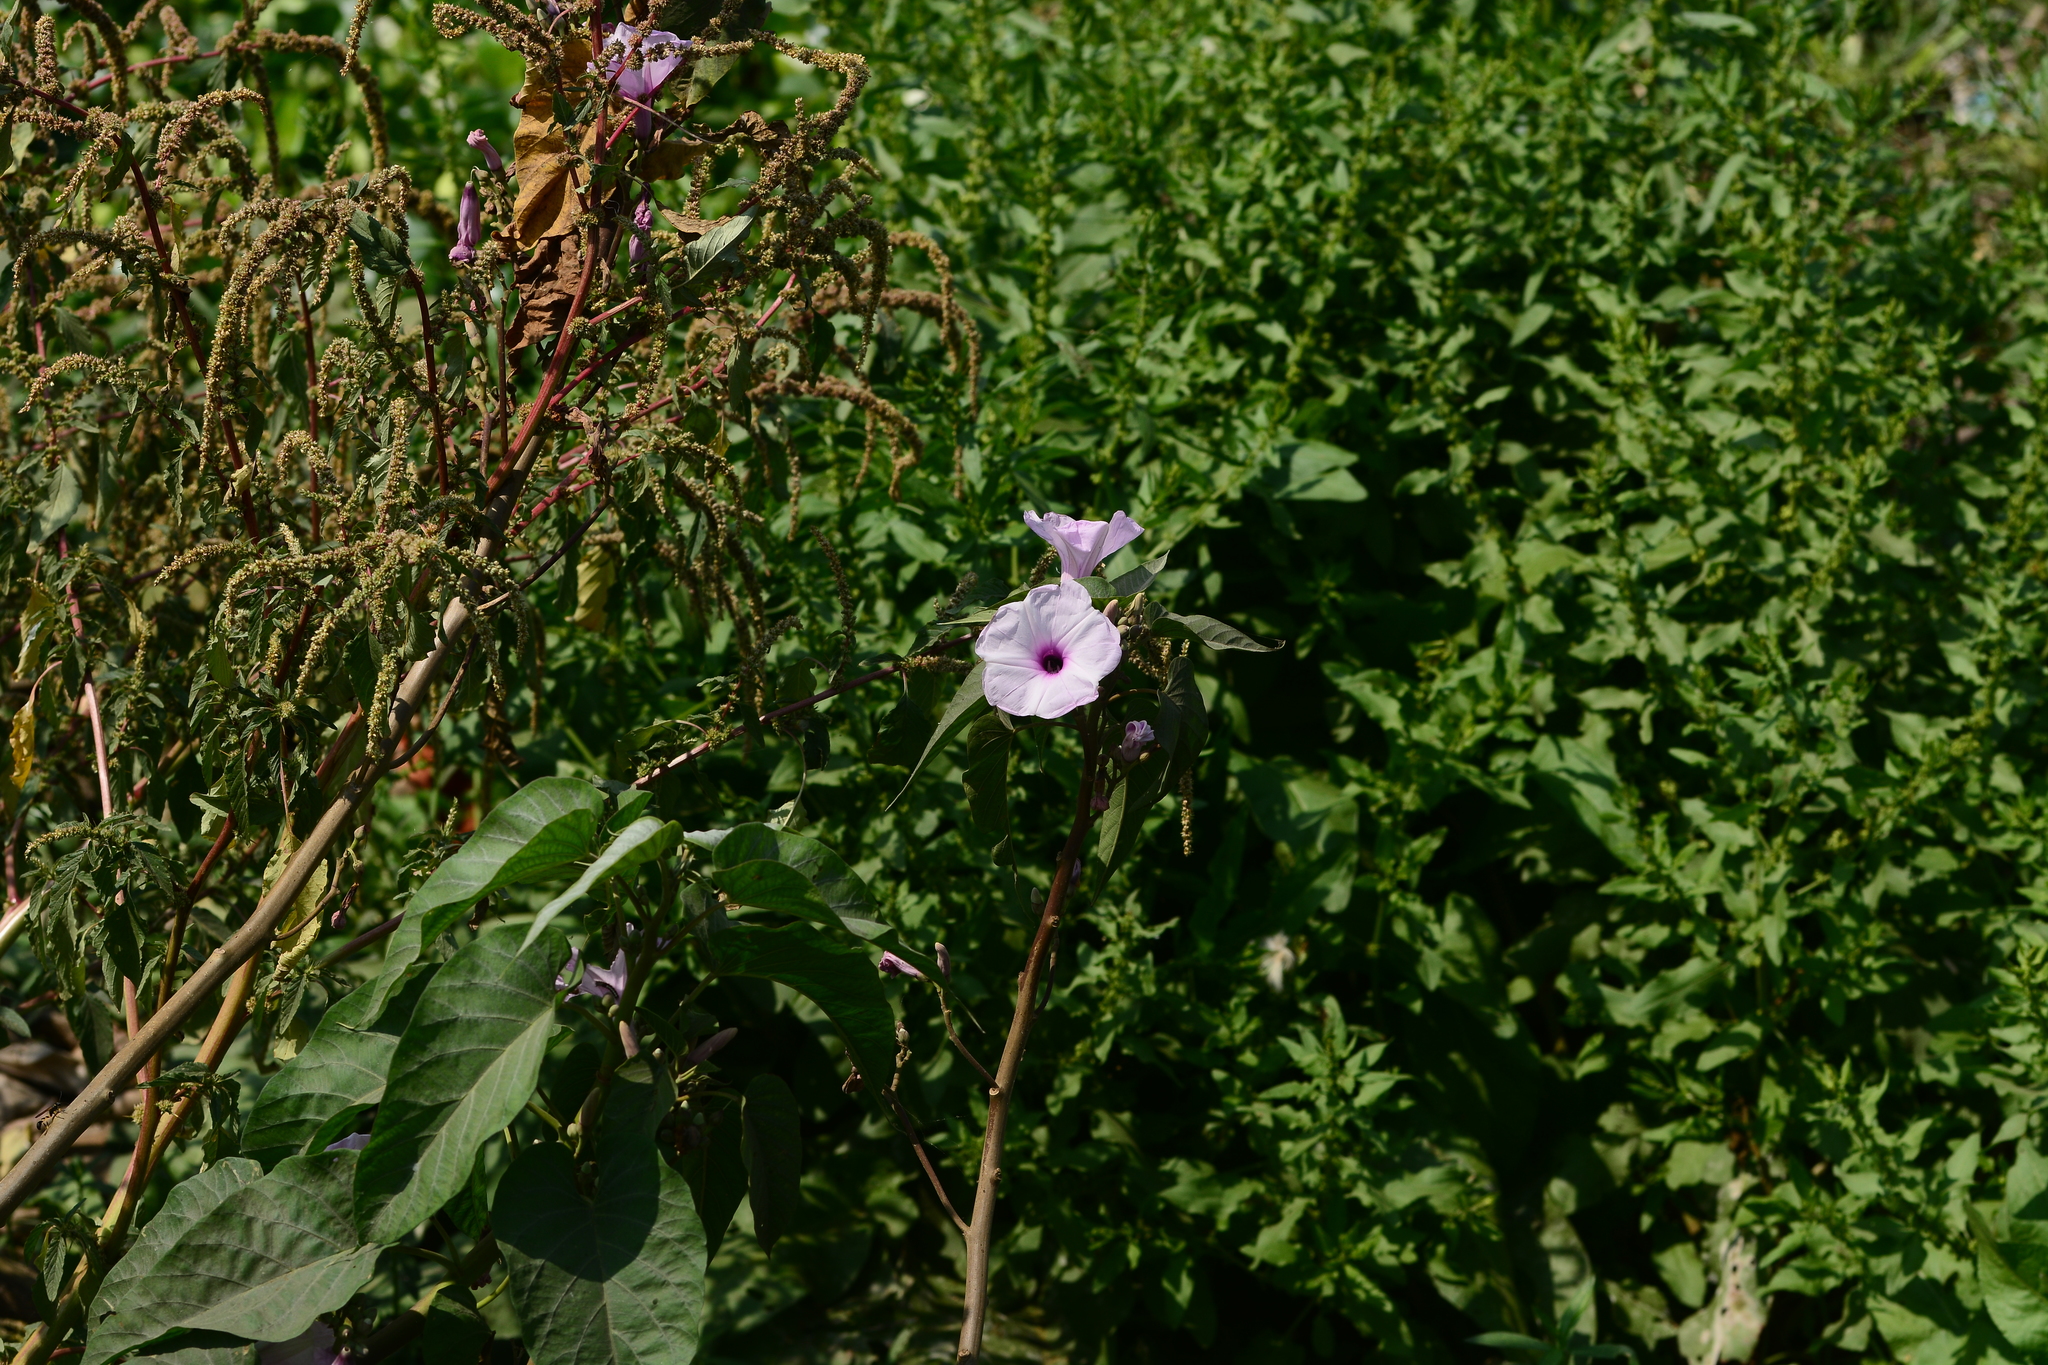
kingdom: Plantae
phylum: Tracheophyta
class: Magnoliopsida
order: Solanales
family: Convolvulaceae
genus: Ipomoea
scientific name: Ipomoea carnea
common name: Morning-glory
